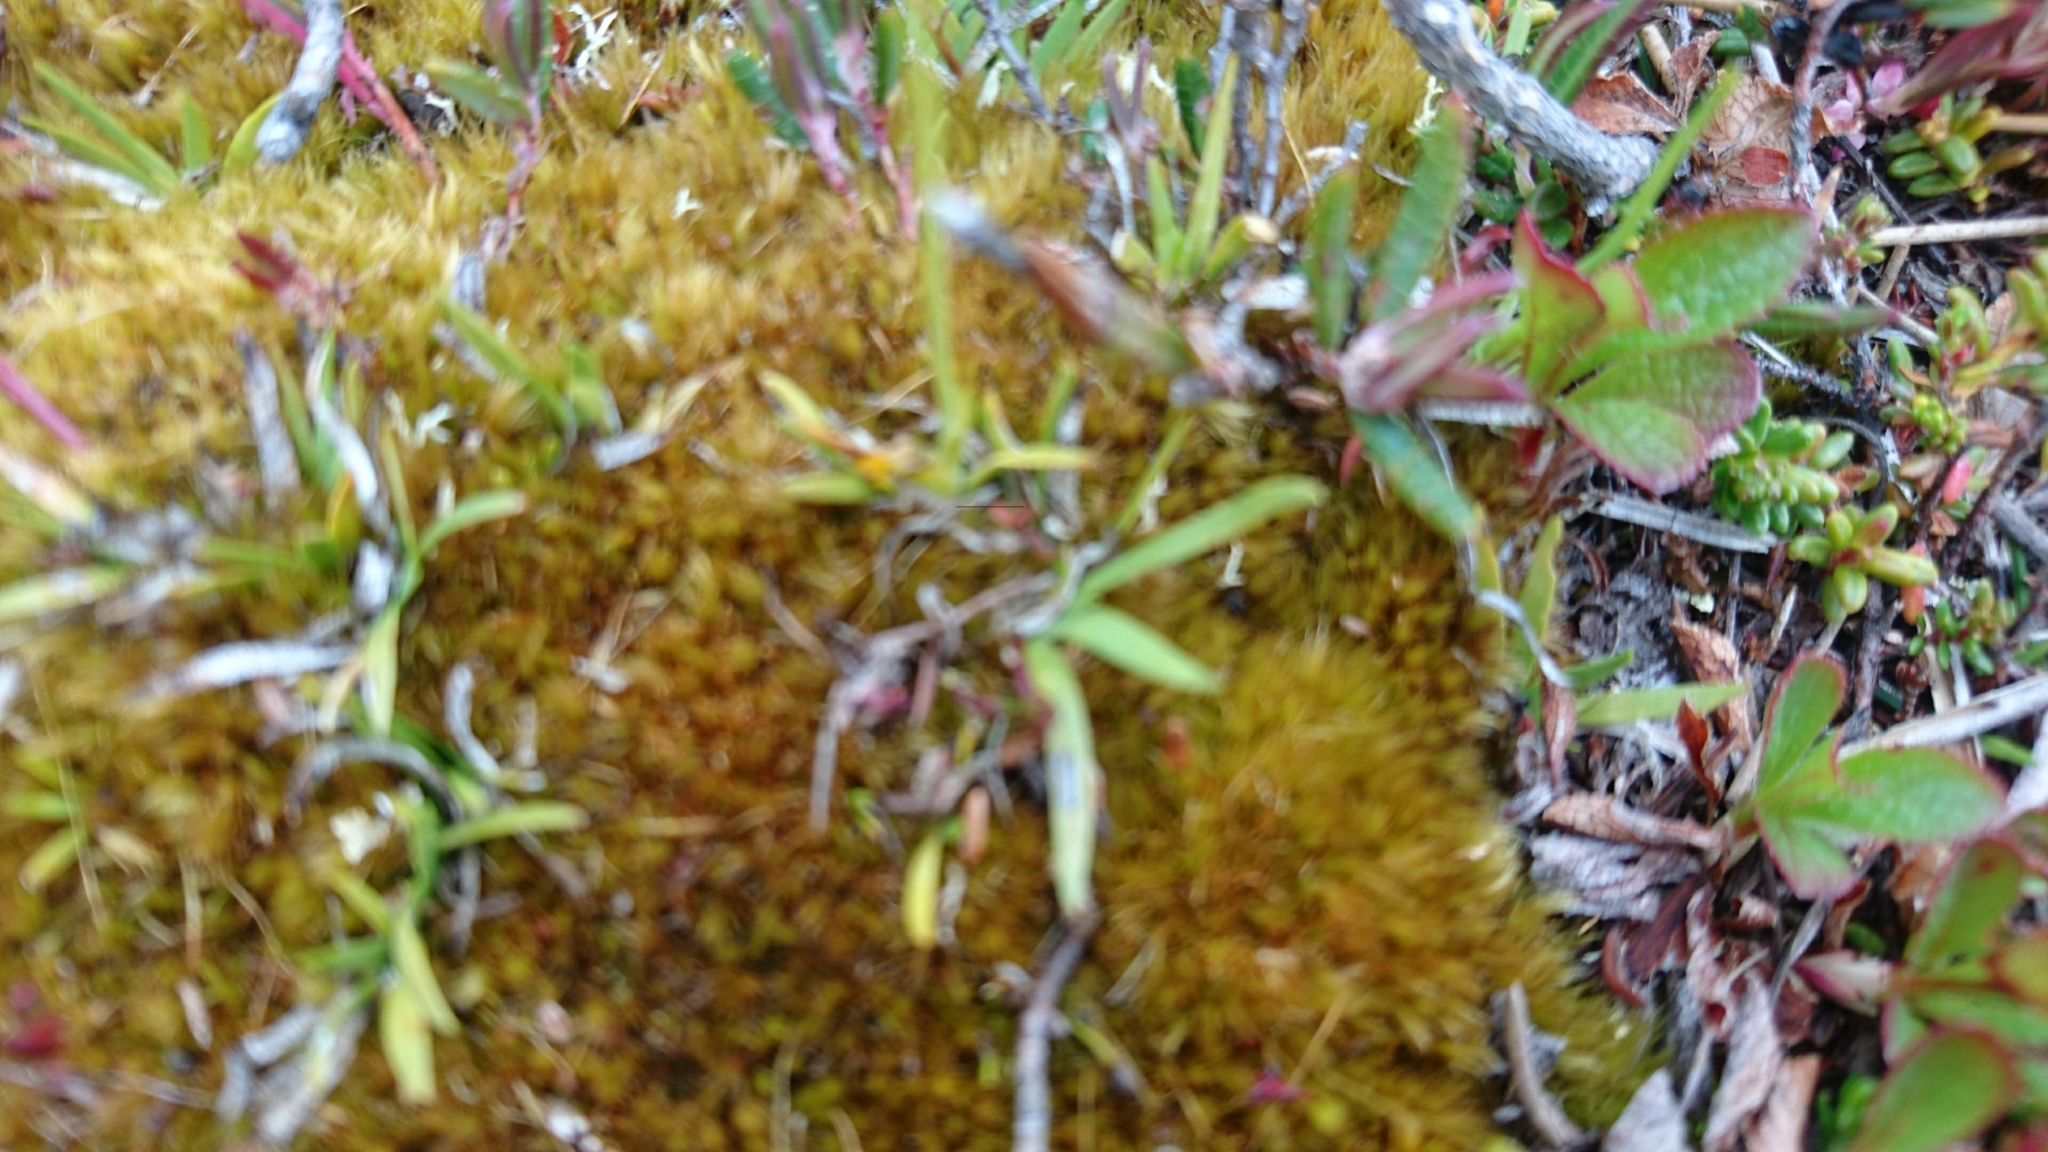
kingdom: Plantae
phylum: Tracheophyta
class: Liliopsida
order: Alismatales
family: Tofieldiaceae
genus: Tofieldia
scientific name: Tofieldia pusilla
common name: Scottish false asphodel
